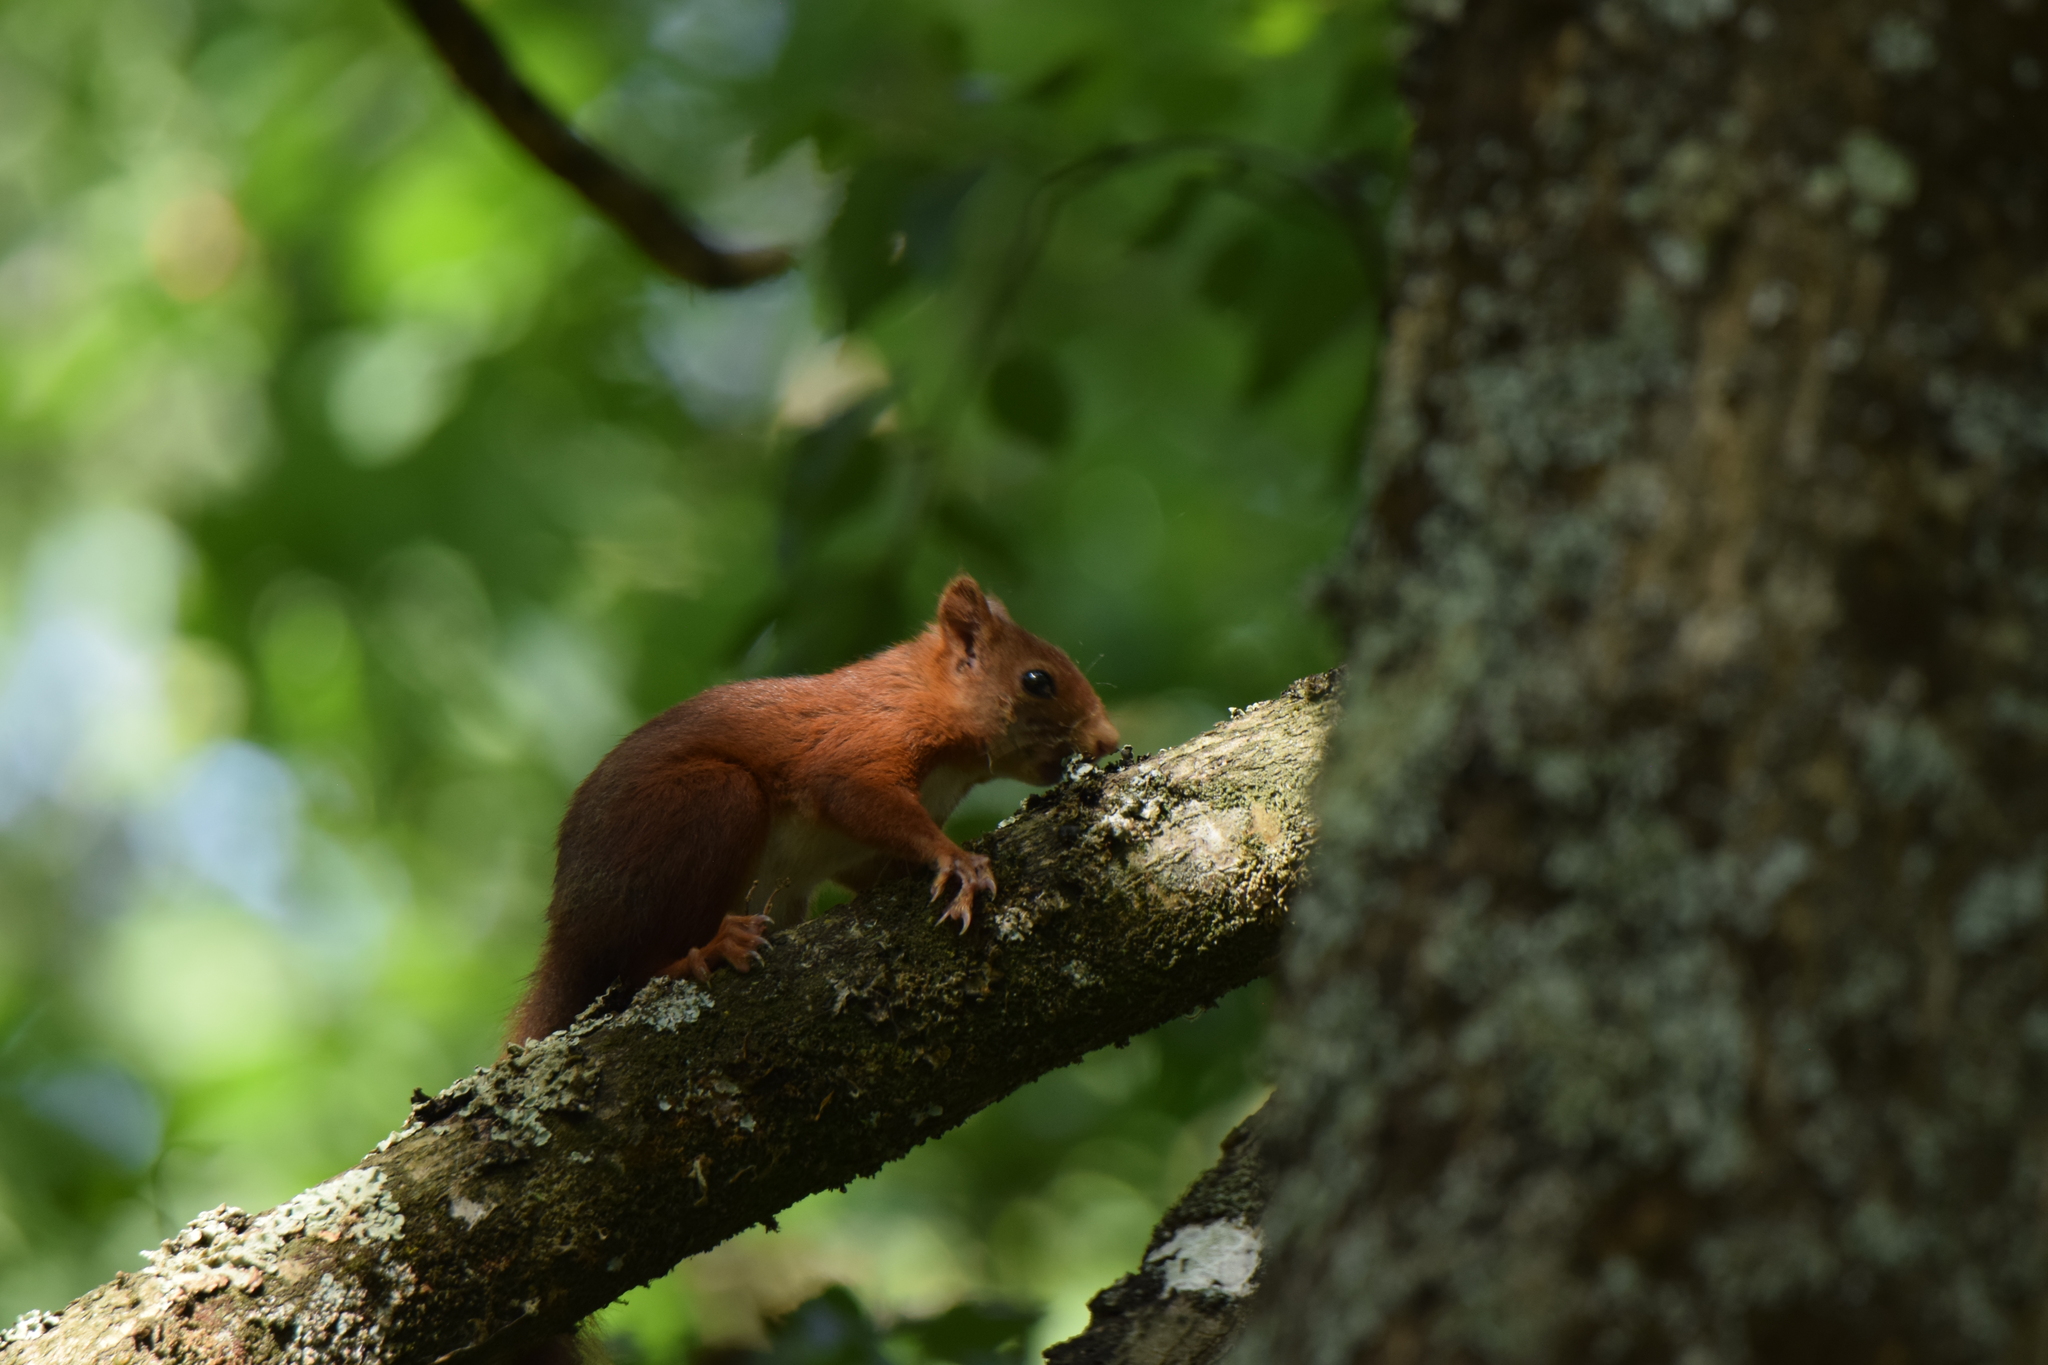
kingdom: Animalia
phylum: Chordata
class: Mammalia
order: Rodentia
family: Sciuridae
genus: Sciurus
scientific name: Sciurus vulgaris
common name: Eurasian red squirrel
